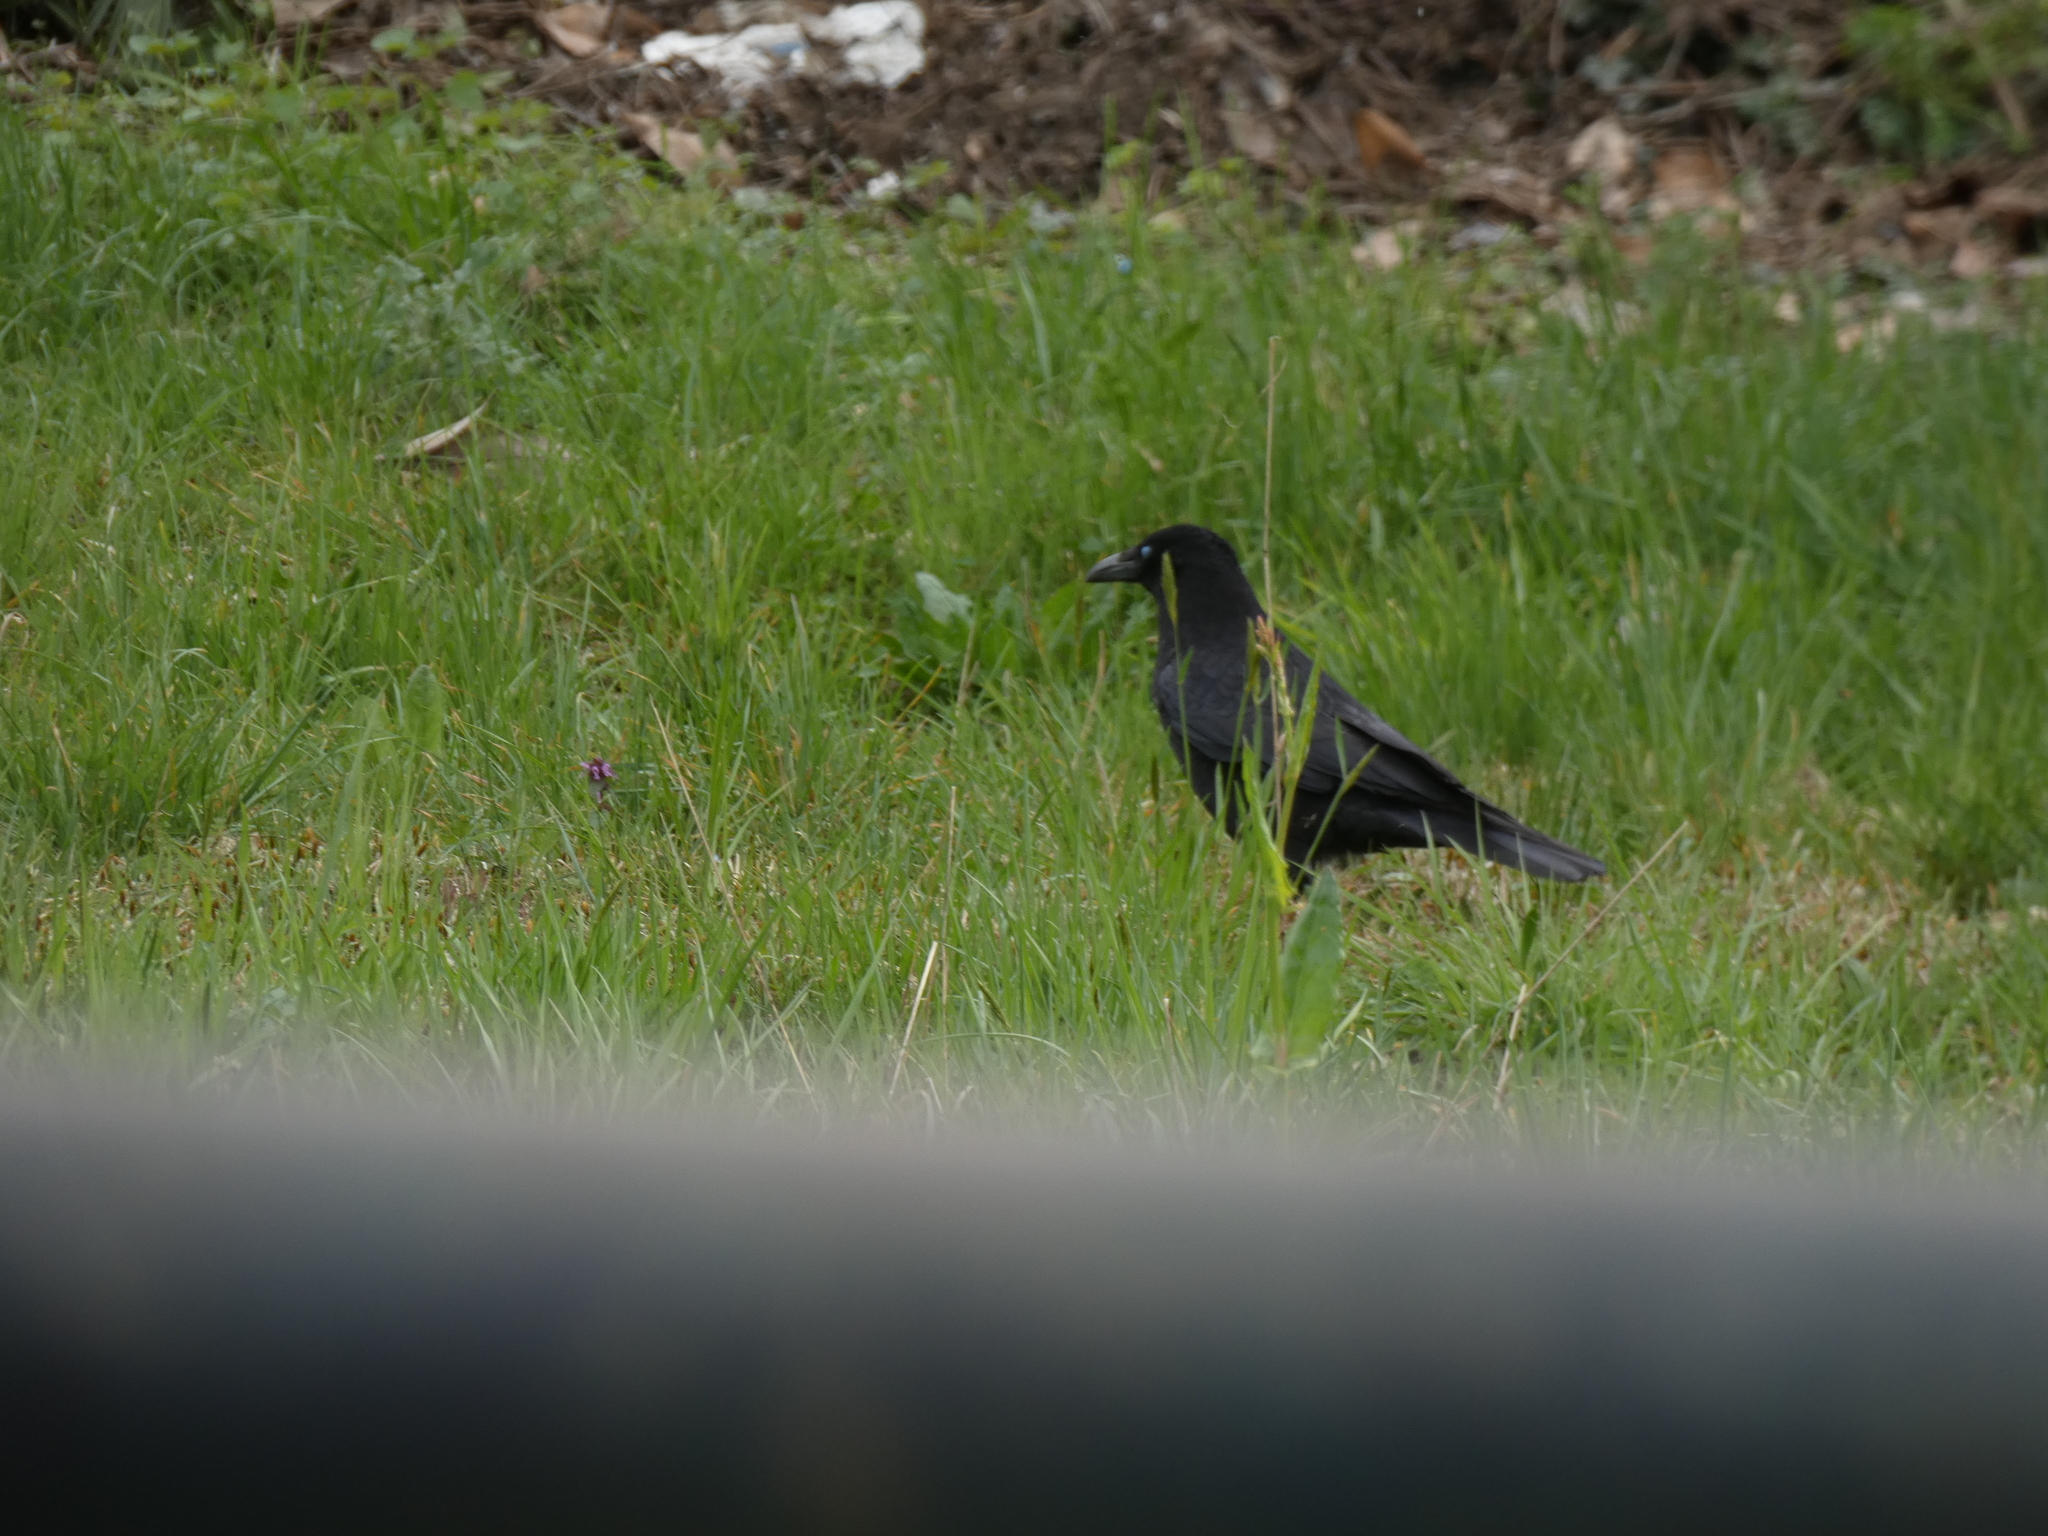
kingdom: Animalia
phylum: Chordata
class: Aves
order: Passeriformes
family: Corvidae
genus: Corvus
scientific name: Corvus corone
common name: Carrion crow
